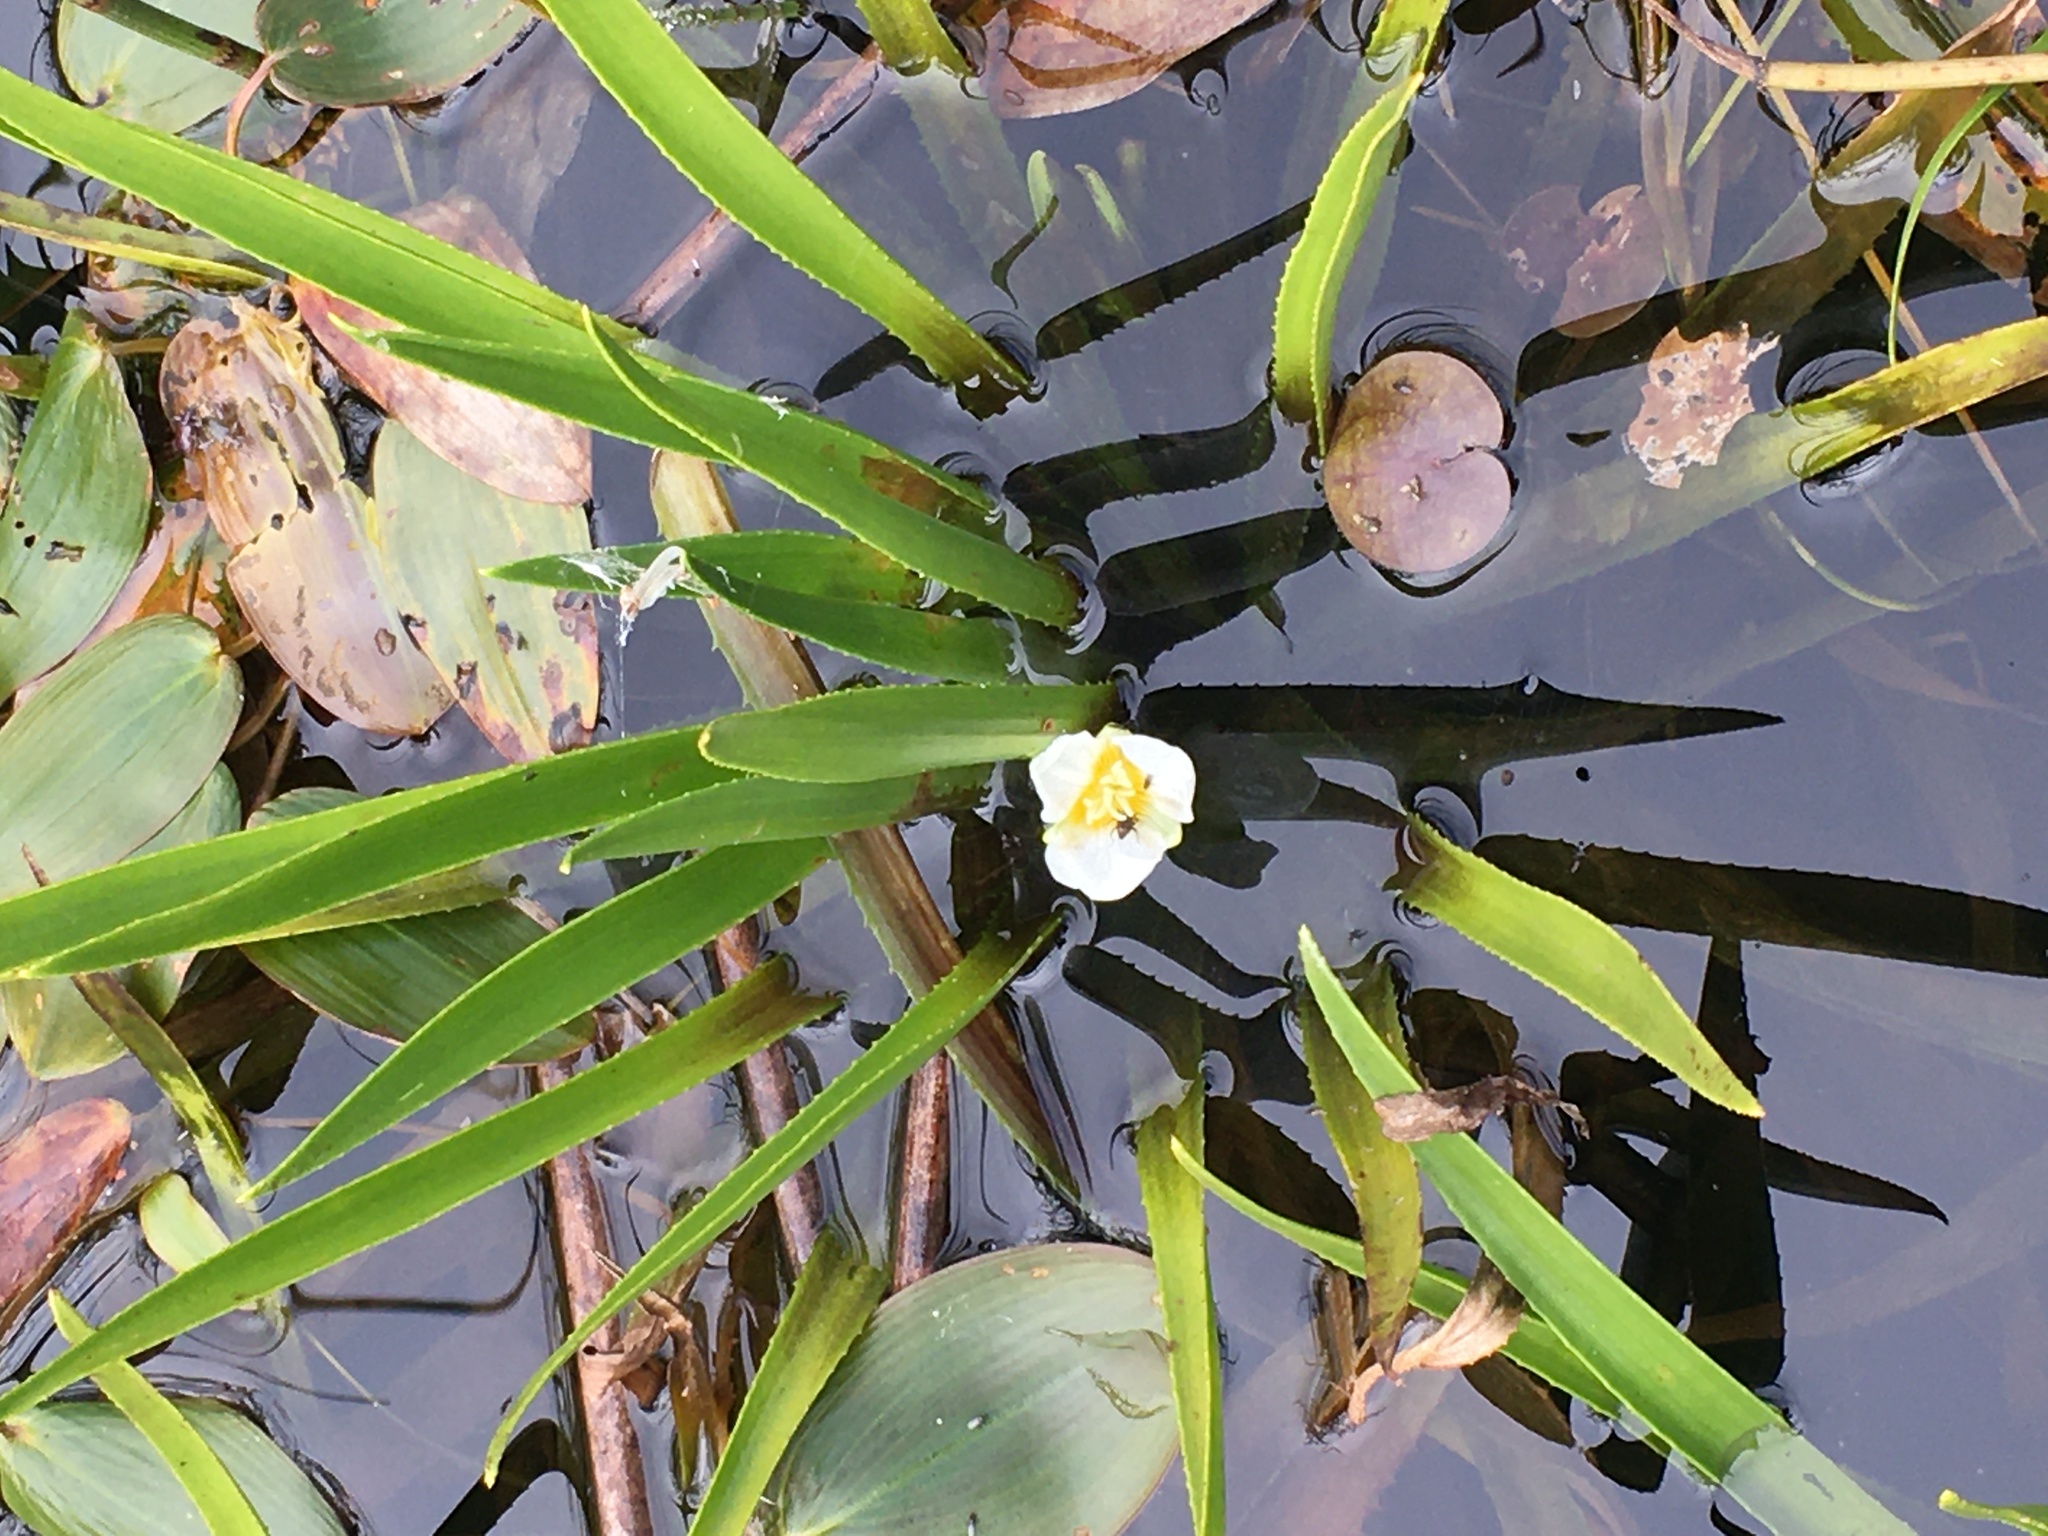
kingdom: Plantae
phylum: Tracheophyta
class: Liliopsida
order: Alismatales
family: Hydrocharitaceae
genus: Stratiotes
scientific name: Stratiotes aloides
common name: Water-soldier
